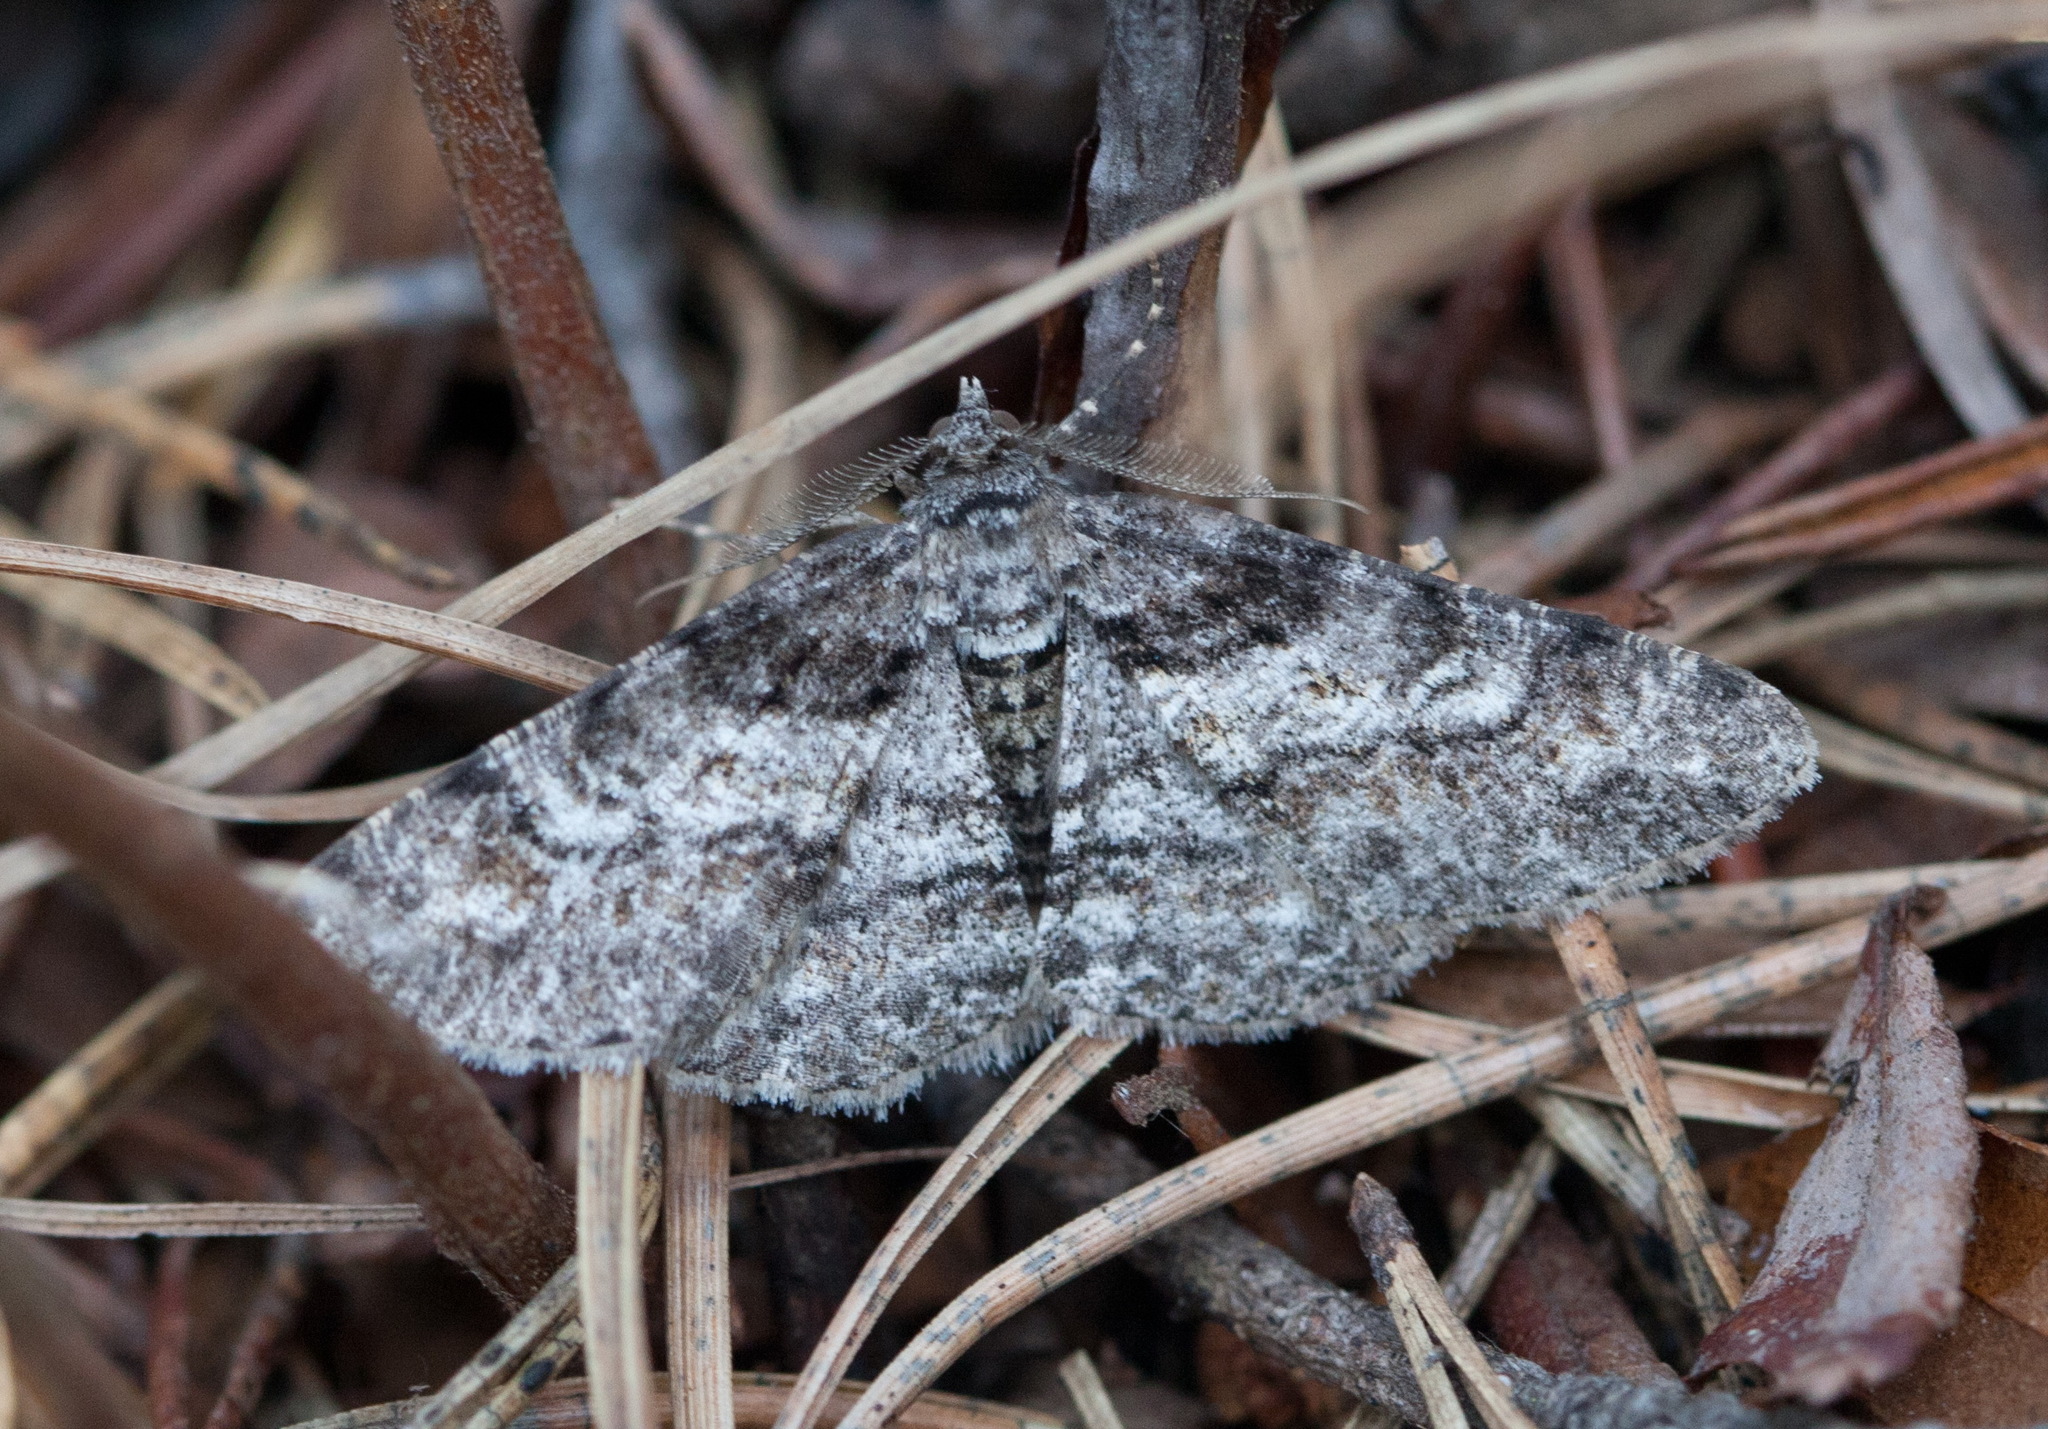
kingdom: Animalia
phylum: Arthropoda
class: Insecta
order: Lepidoptera
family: Geometridae
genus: Cleora
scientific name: Cleora cinctaria
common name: Ringed carpet
